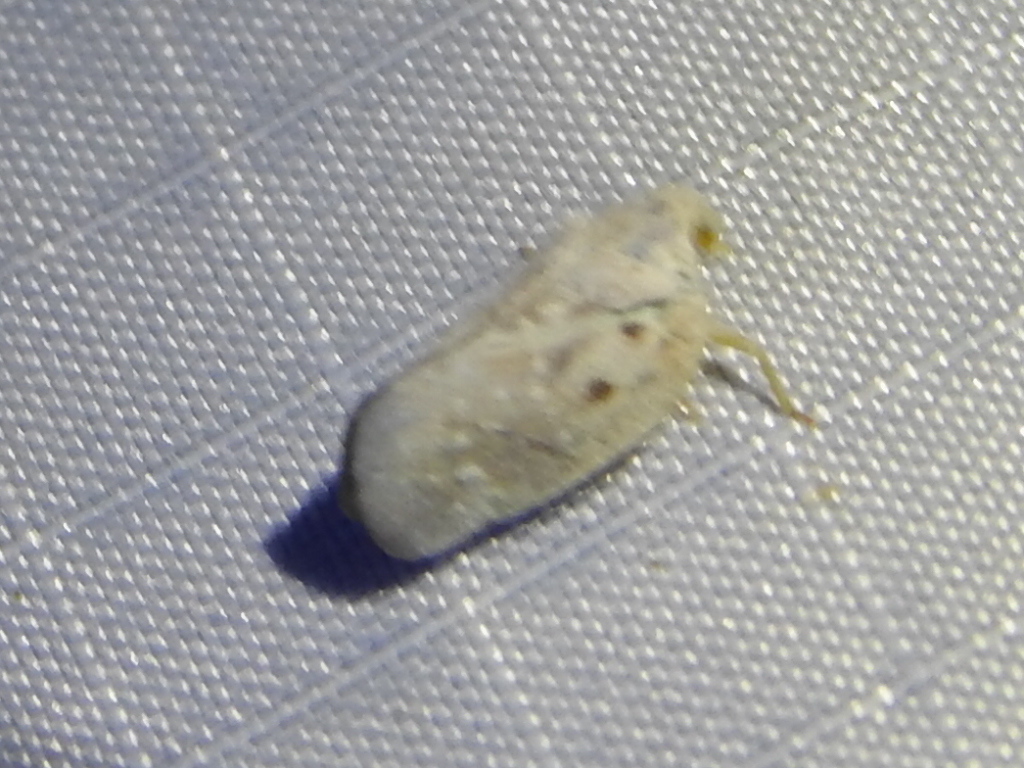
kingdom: Animalia
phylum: Arthropoda
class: Insecta
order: Hemiptera
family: Flatidae
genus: Metcalfa
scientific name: Metcalfa pruinosa
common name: Citrus flatid planthopper
